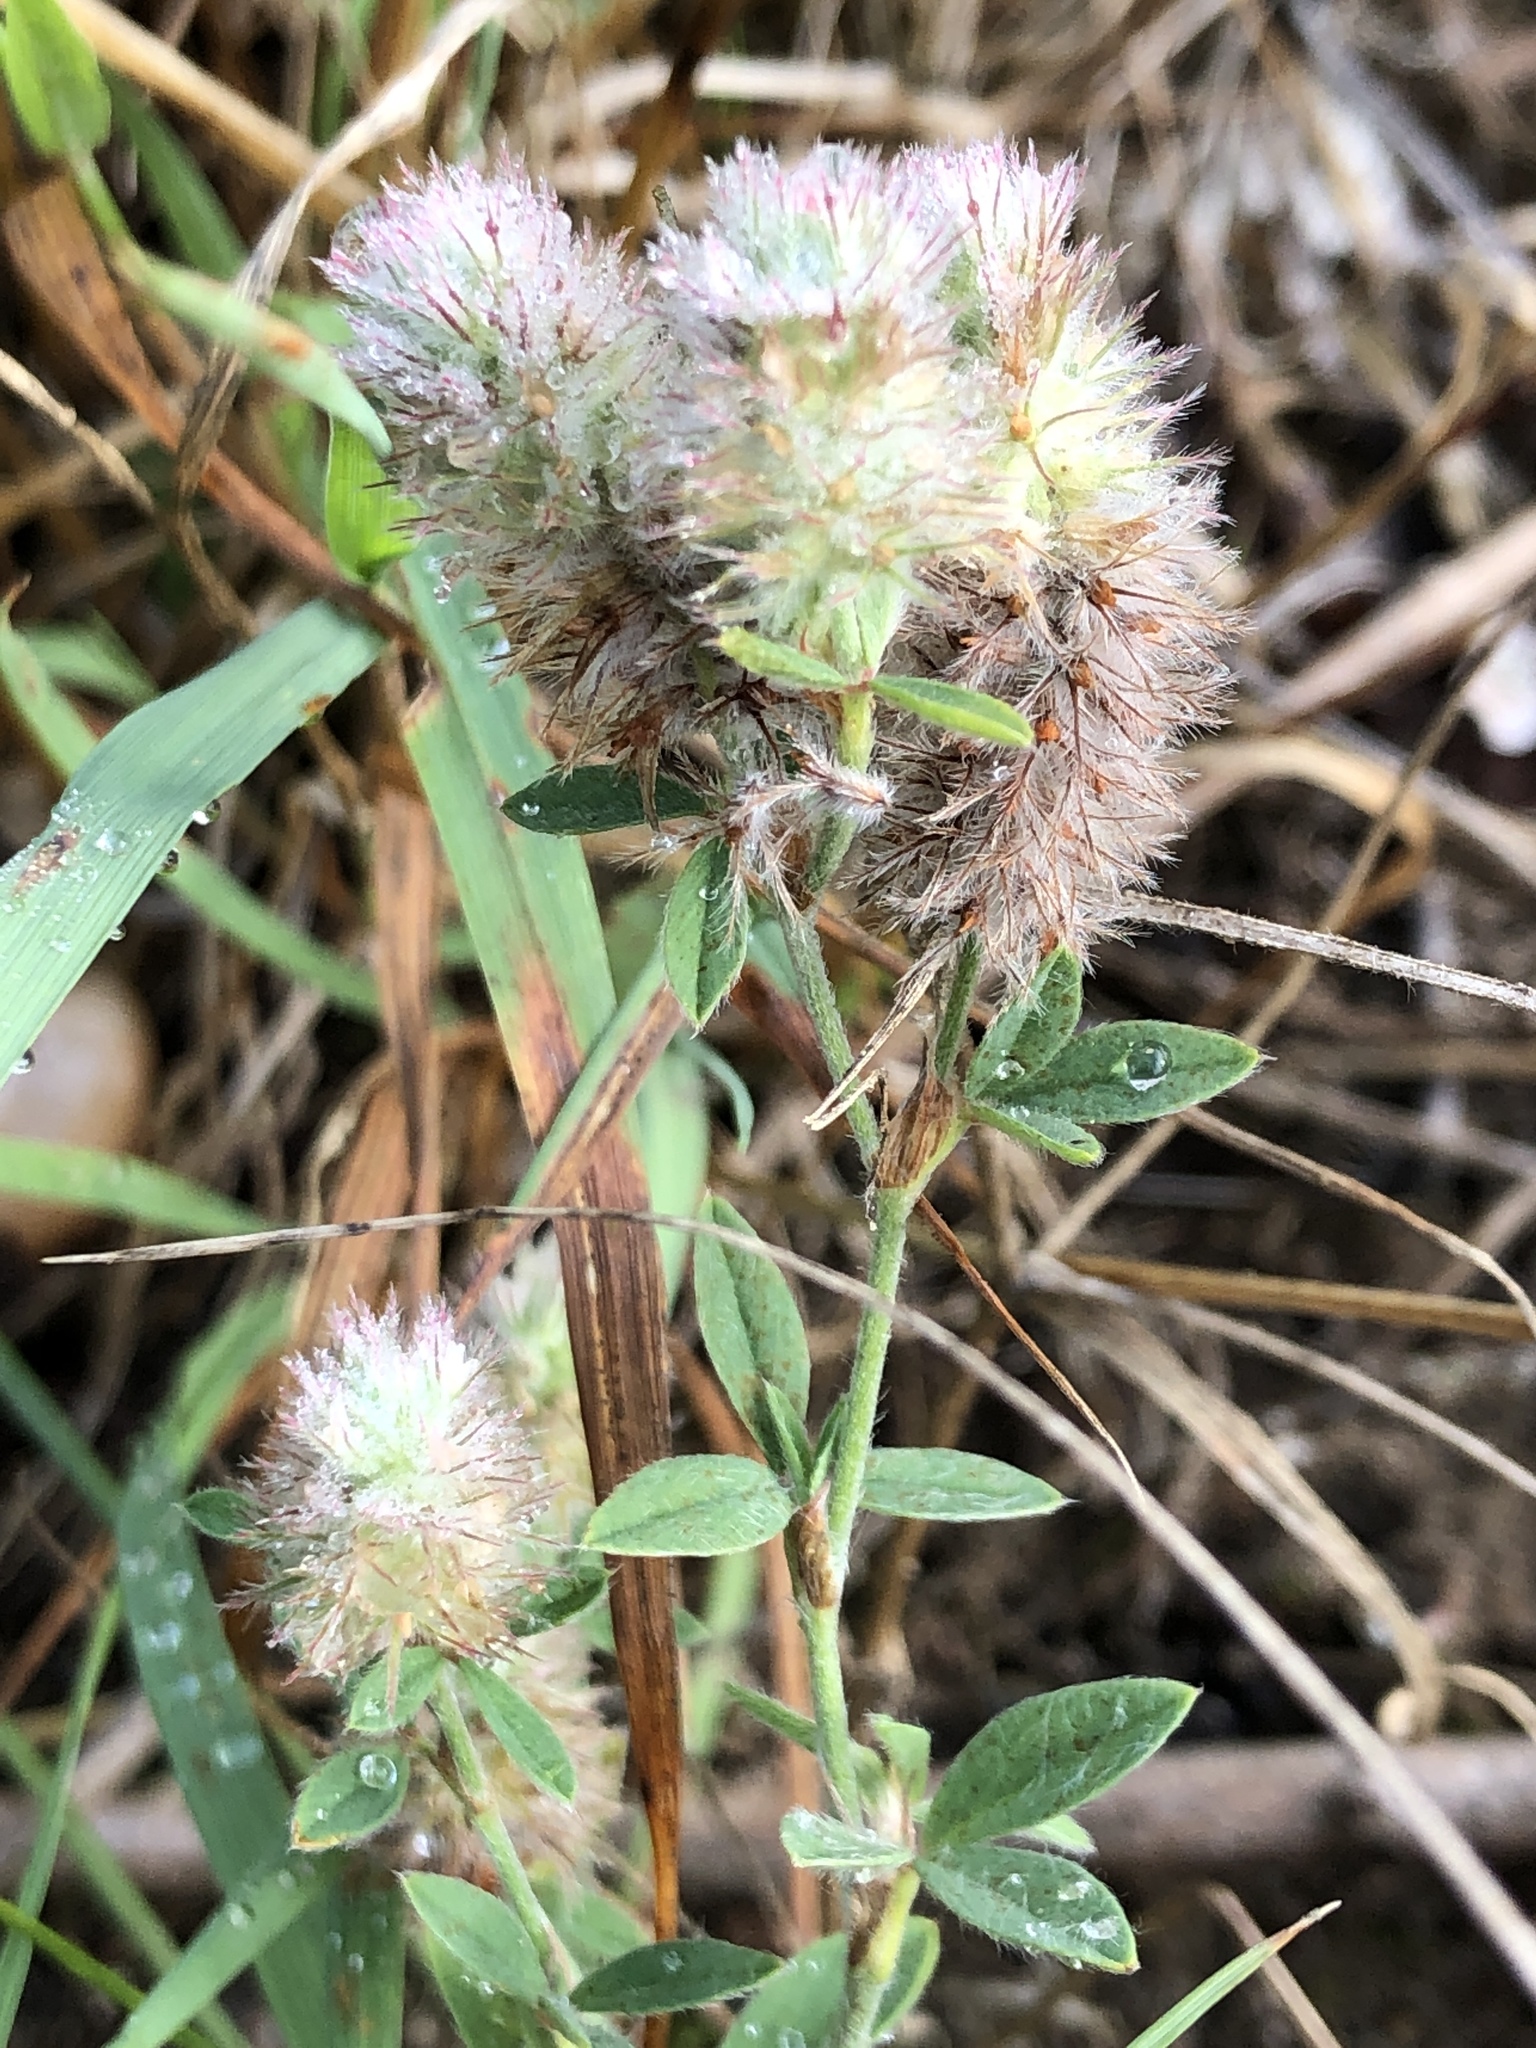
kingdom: Plantae
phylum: Tracheophyta
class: Magnoliopsida
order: Fabales
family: Fabaceae
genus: Trifolium
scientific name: Trifolium arvense
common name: Hare's-foot clover
